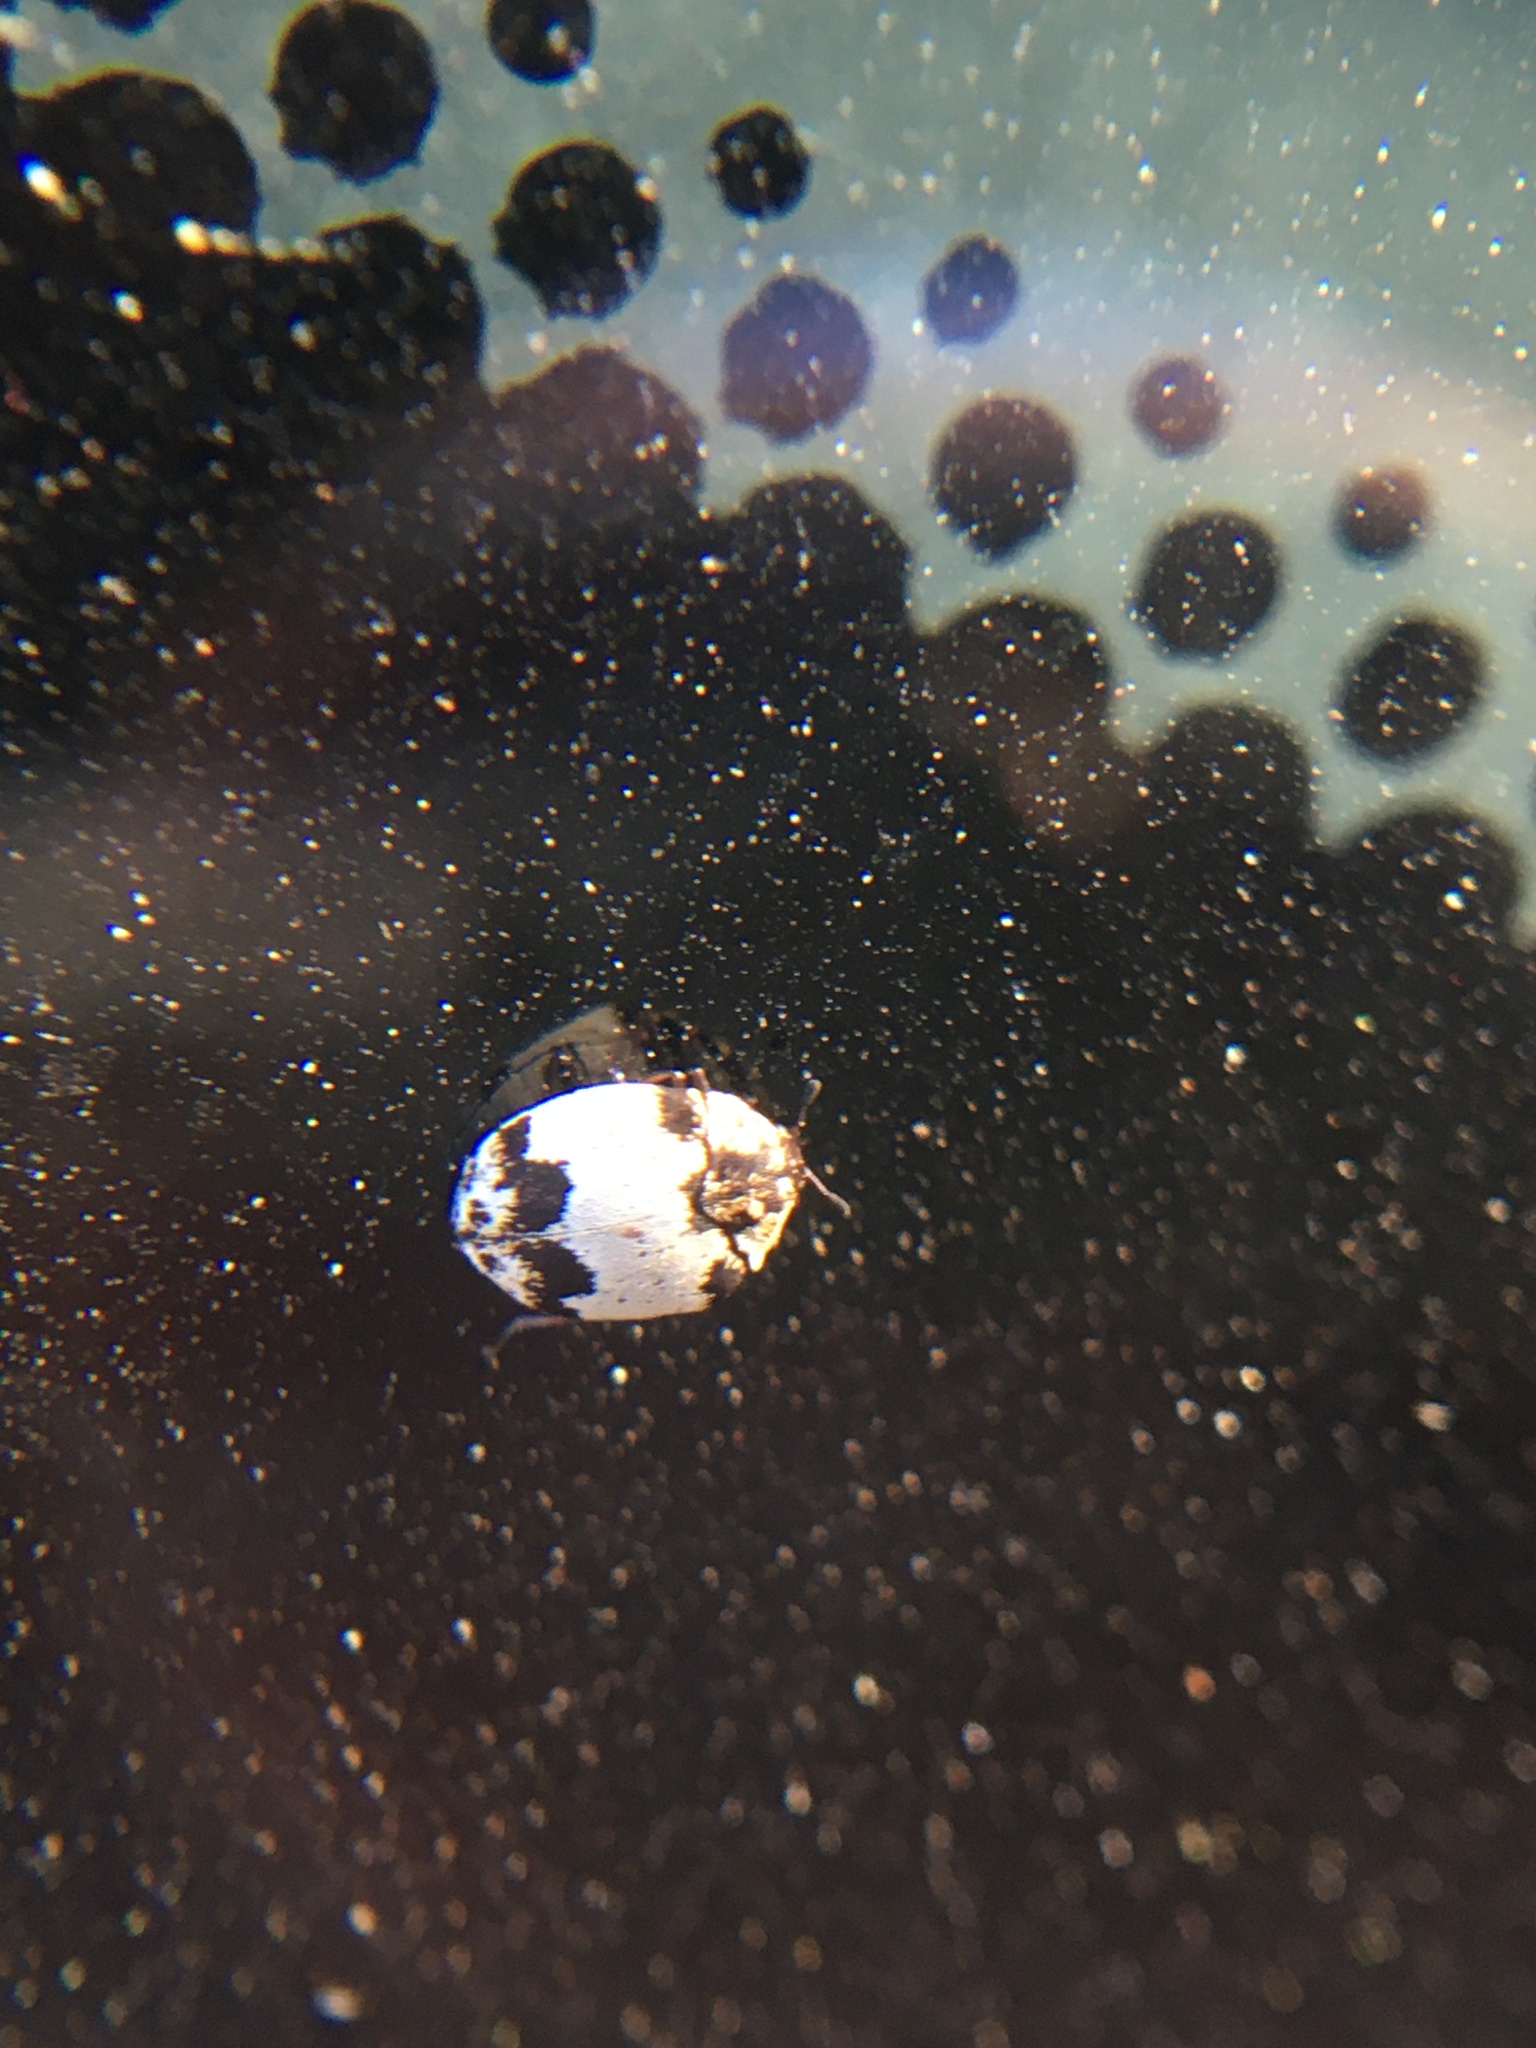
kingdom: Animalia
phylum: Arthropoda
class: Insecta
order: Coleoptera
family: Dermestidae
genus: Anthrenus
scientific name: Anthrenus
